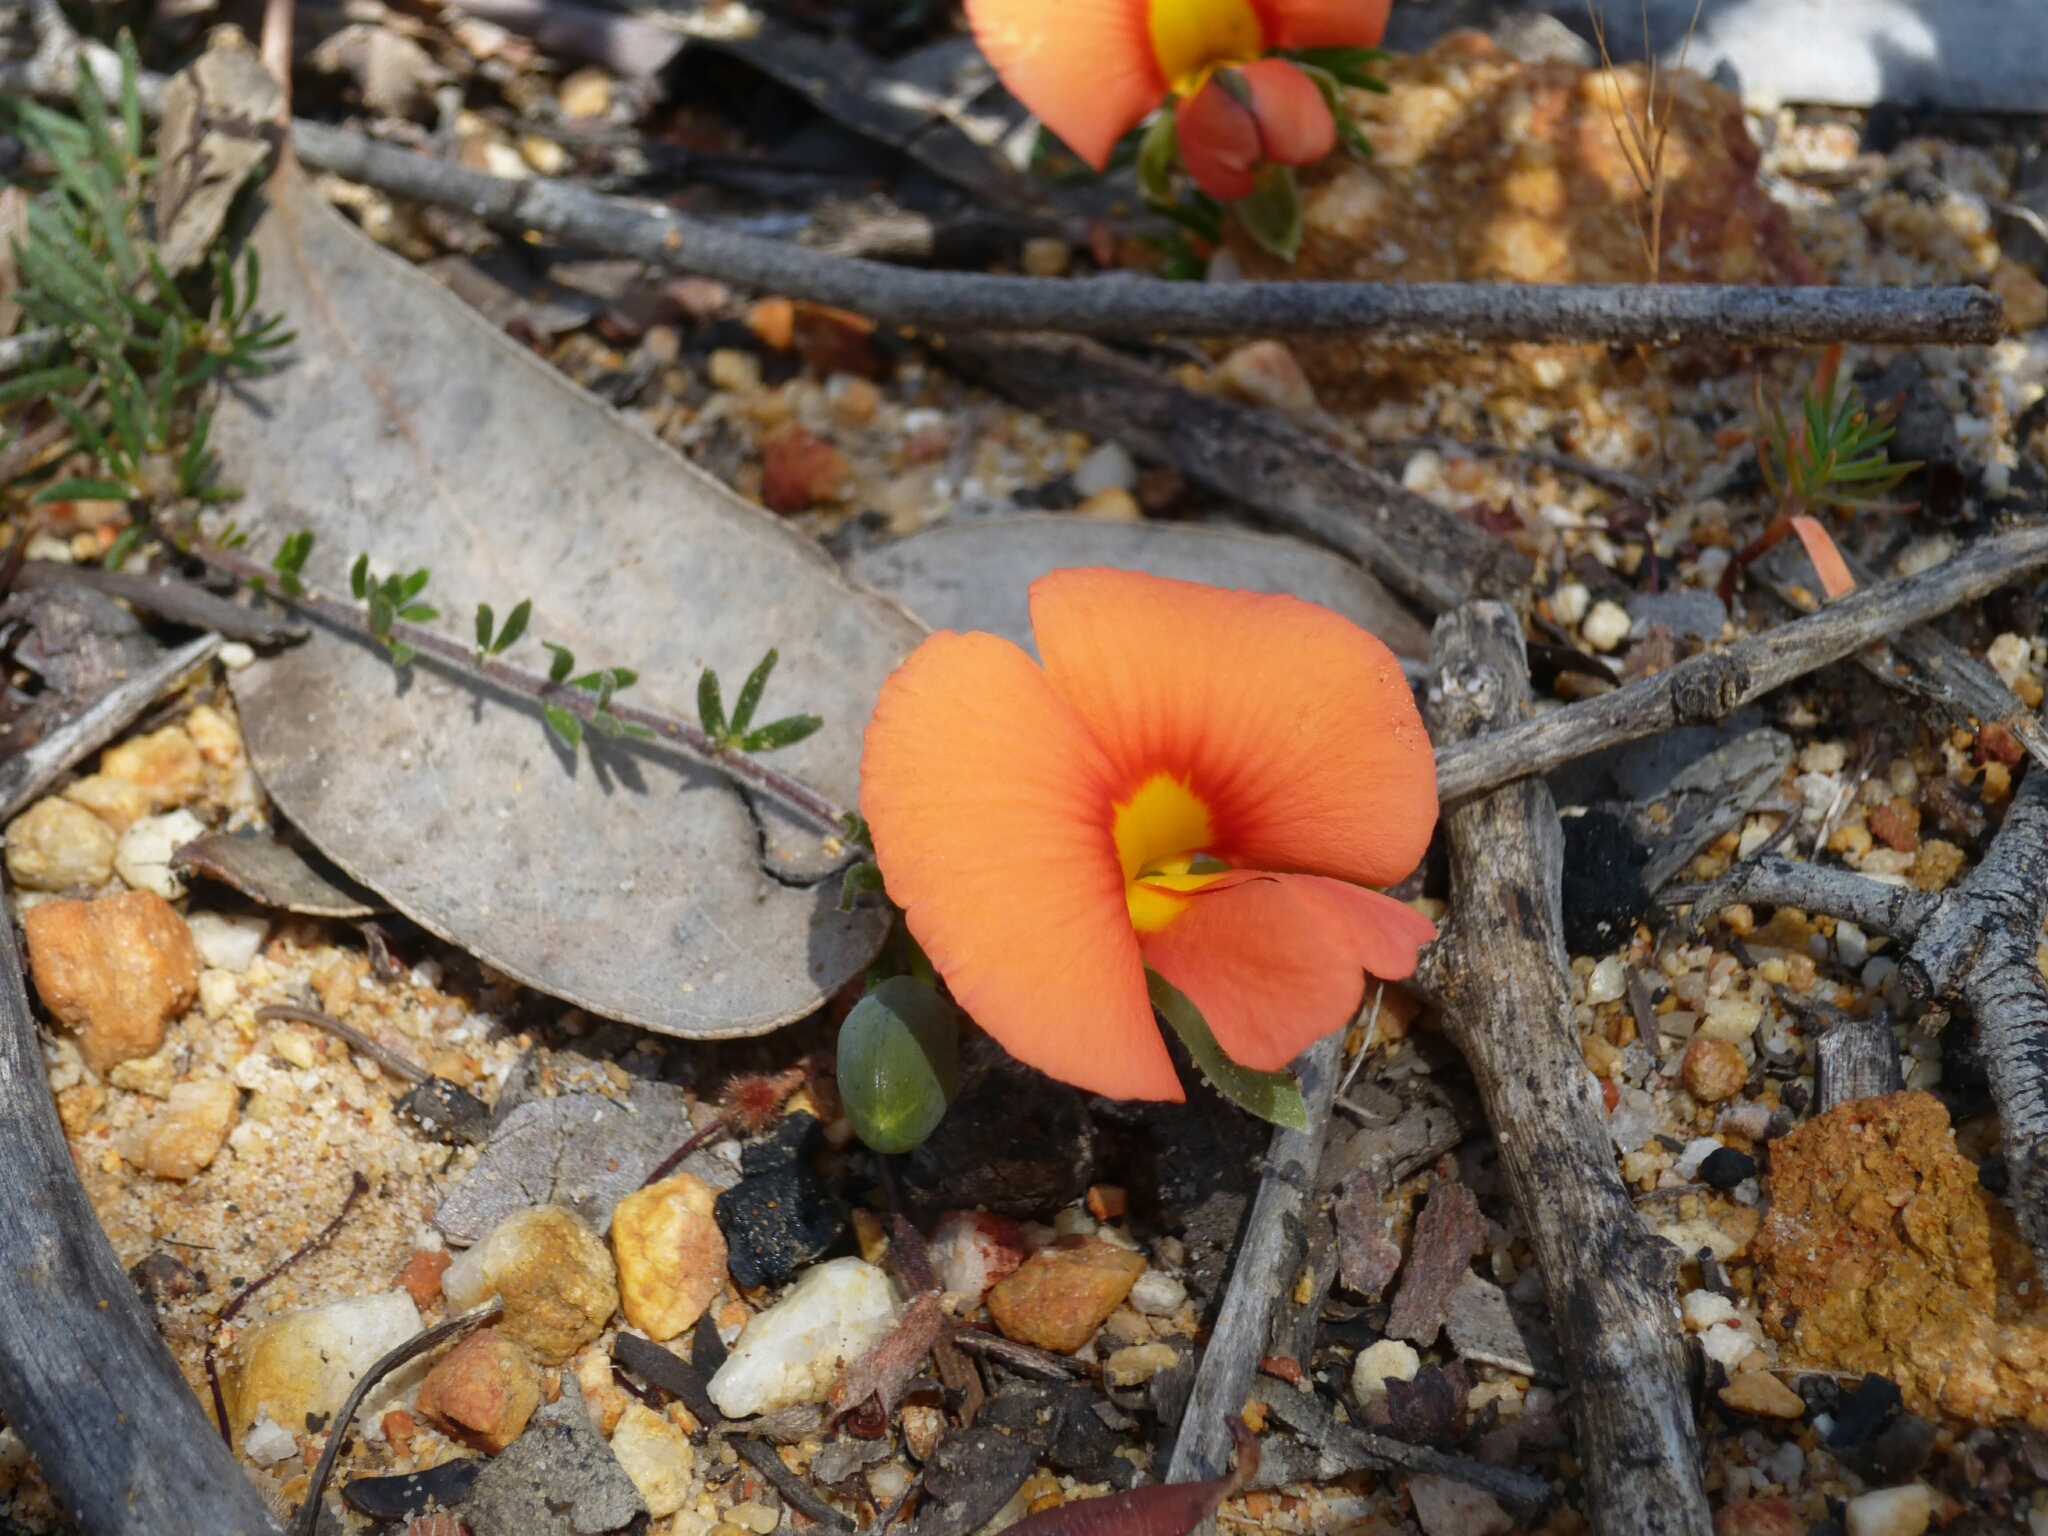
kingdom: Plantae
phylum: Tracheophyta
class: Magnoliopsida
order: Fabales
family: Fabaceae
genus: Gompholobium
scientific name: Gompholobium ecostatum
